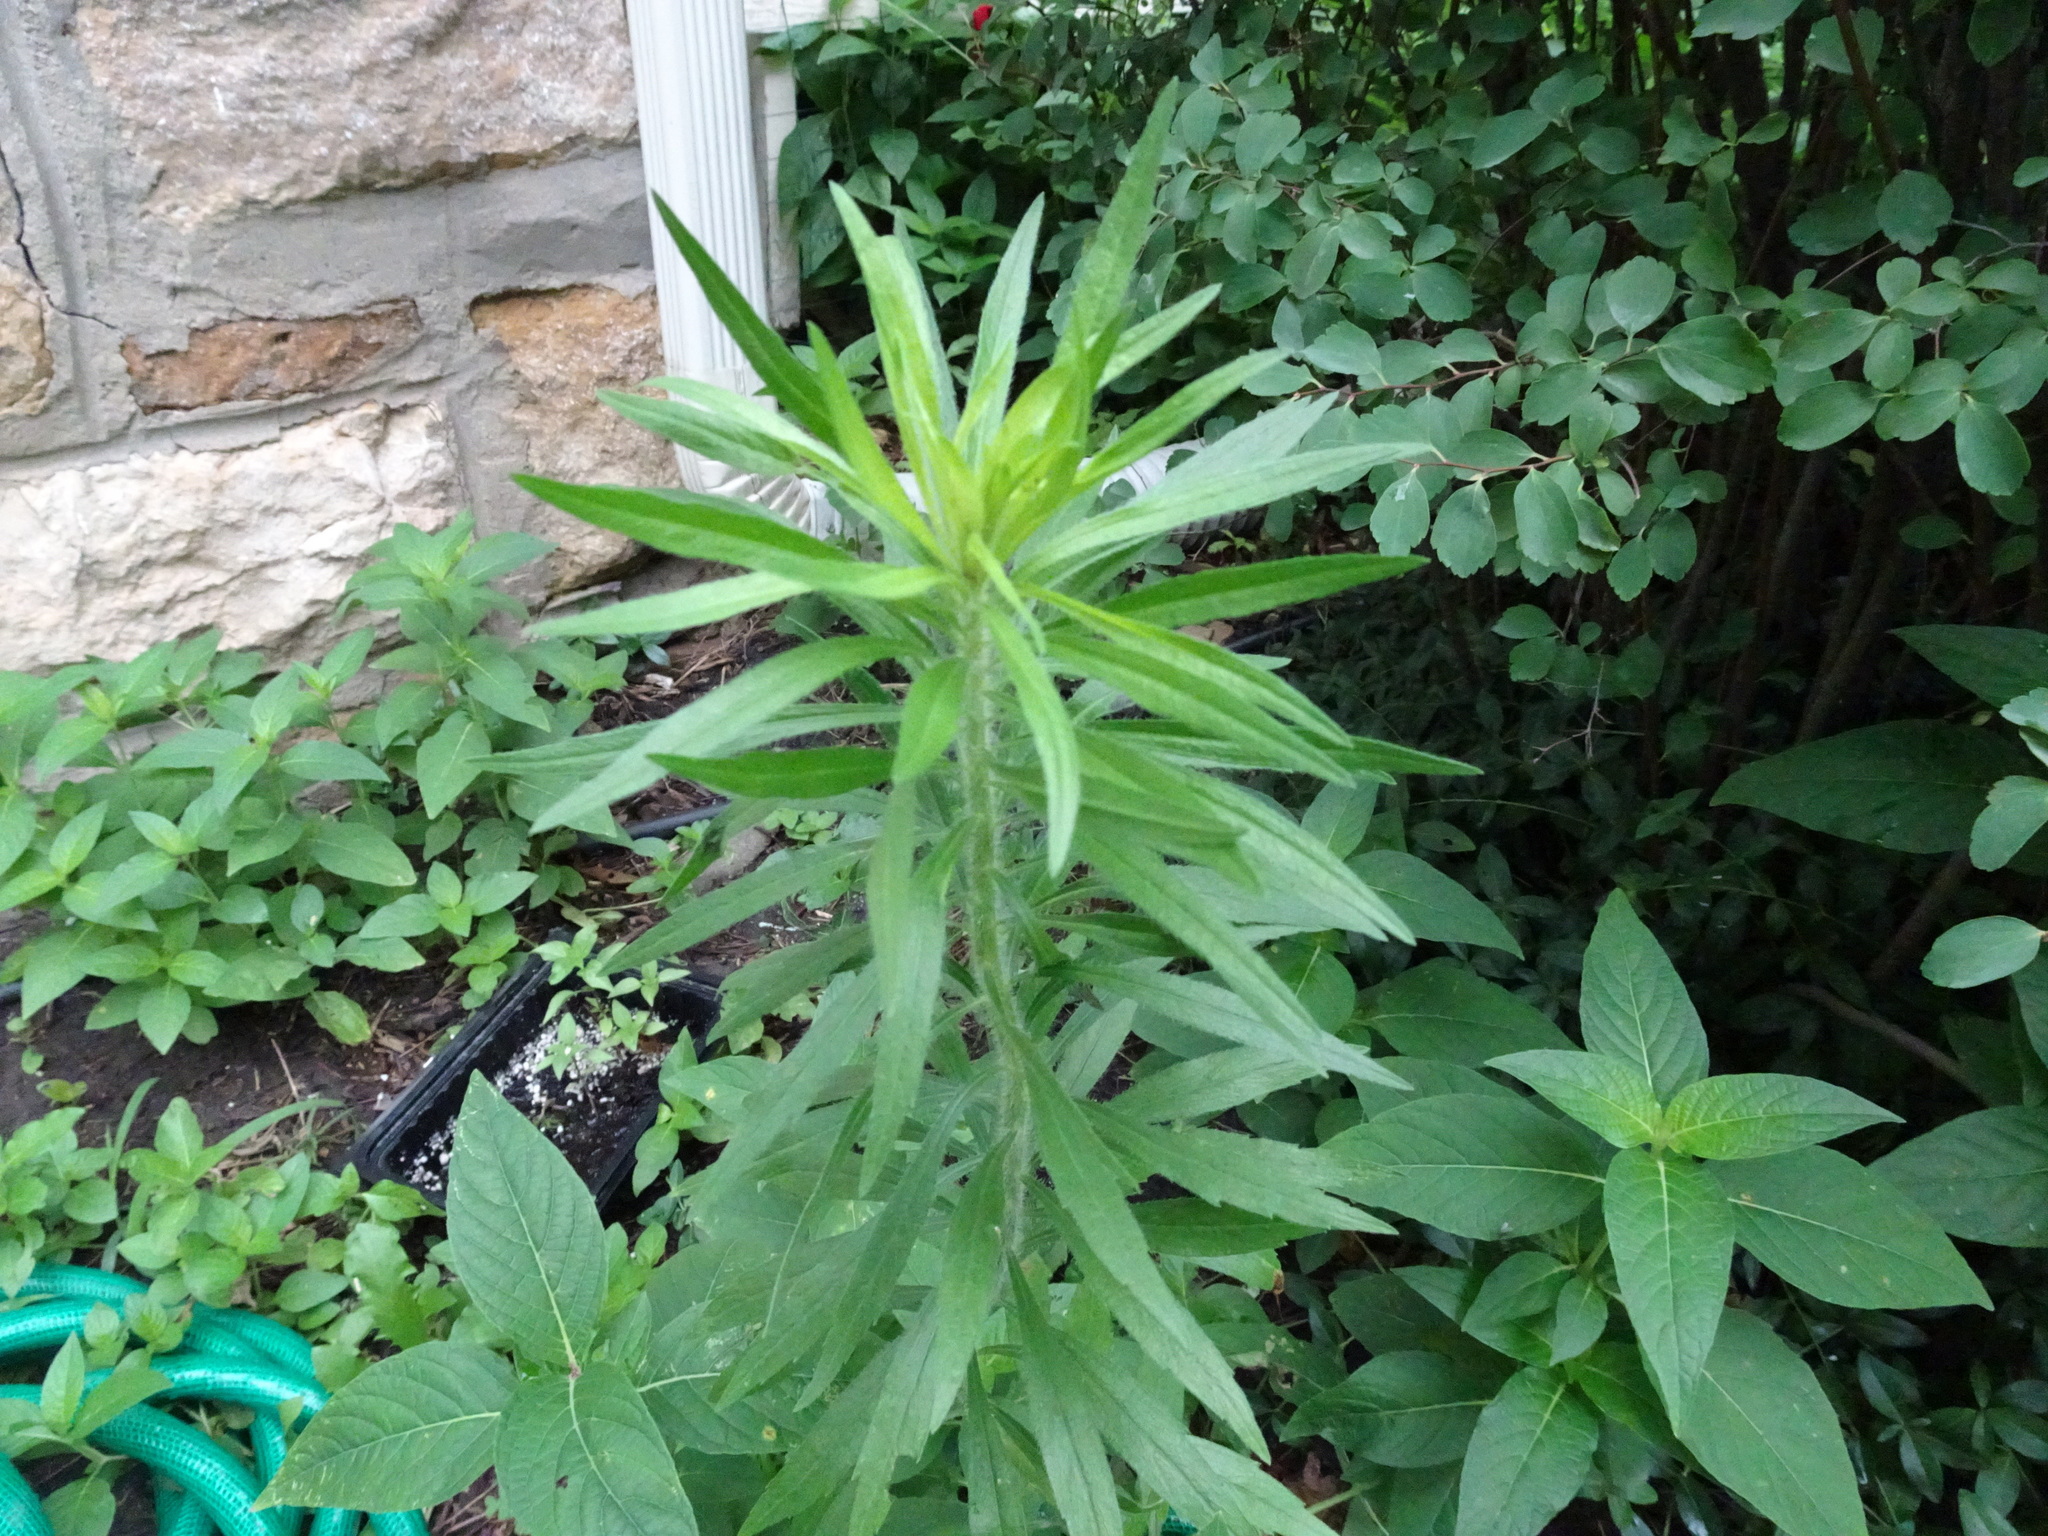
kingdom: Plantae
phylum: Tracheophyta
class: Magnoliopsida
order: Asterales
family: Asteraceae
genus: Erigeron
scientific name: Erigeron canadensis
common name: Canadian fleabane
